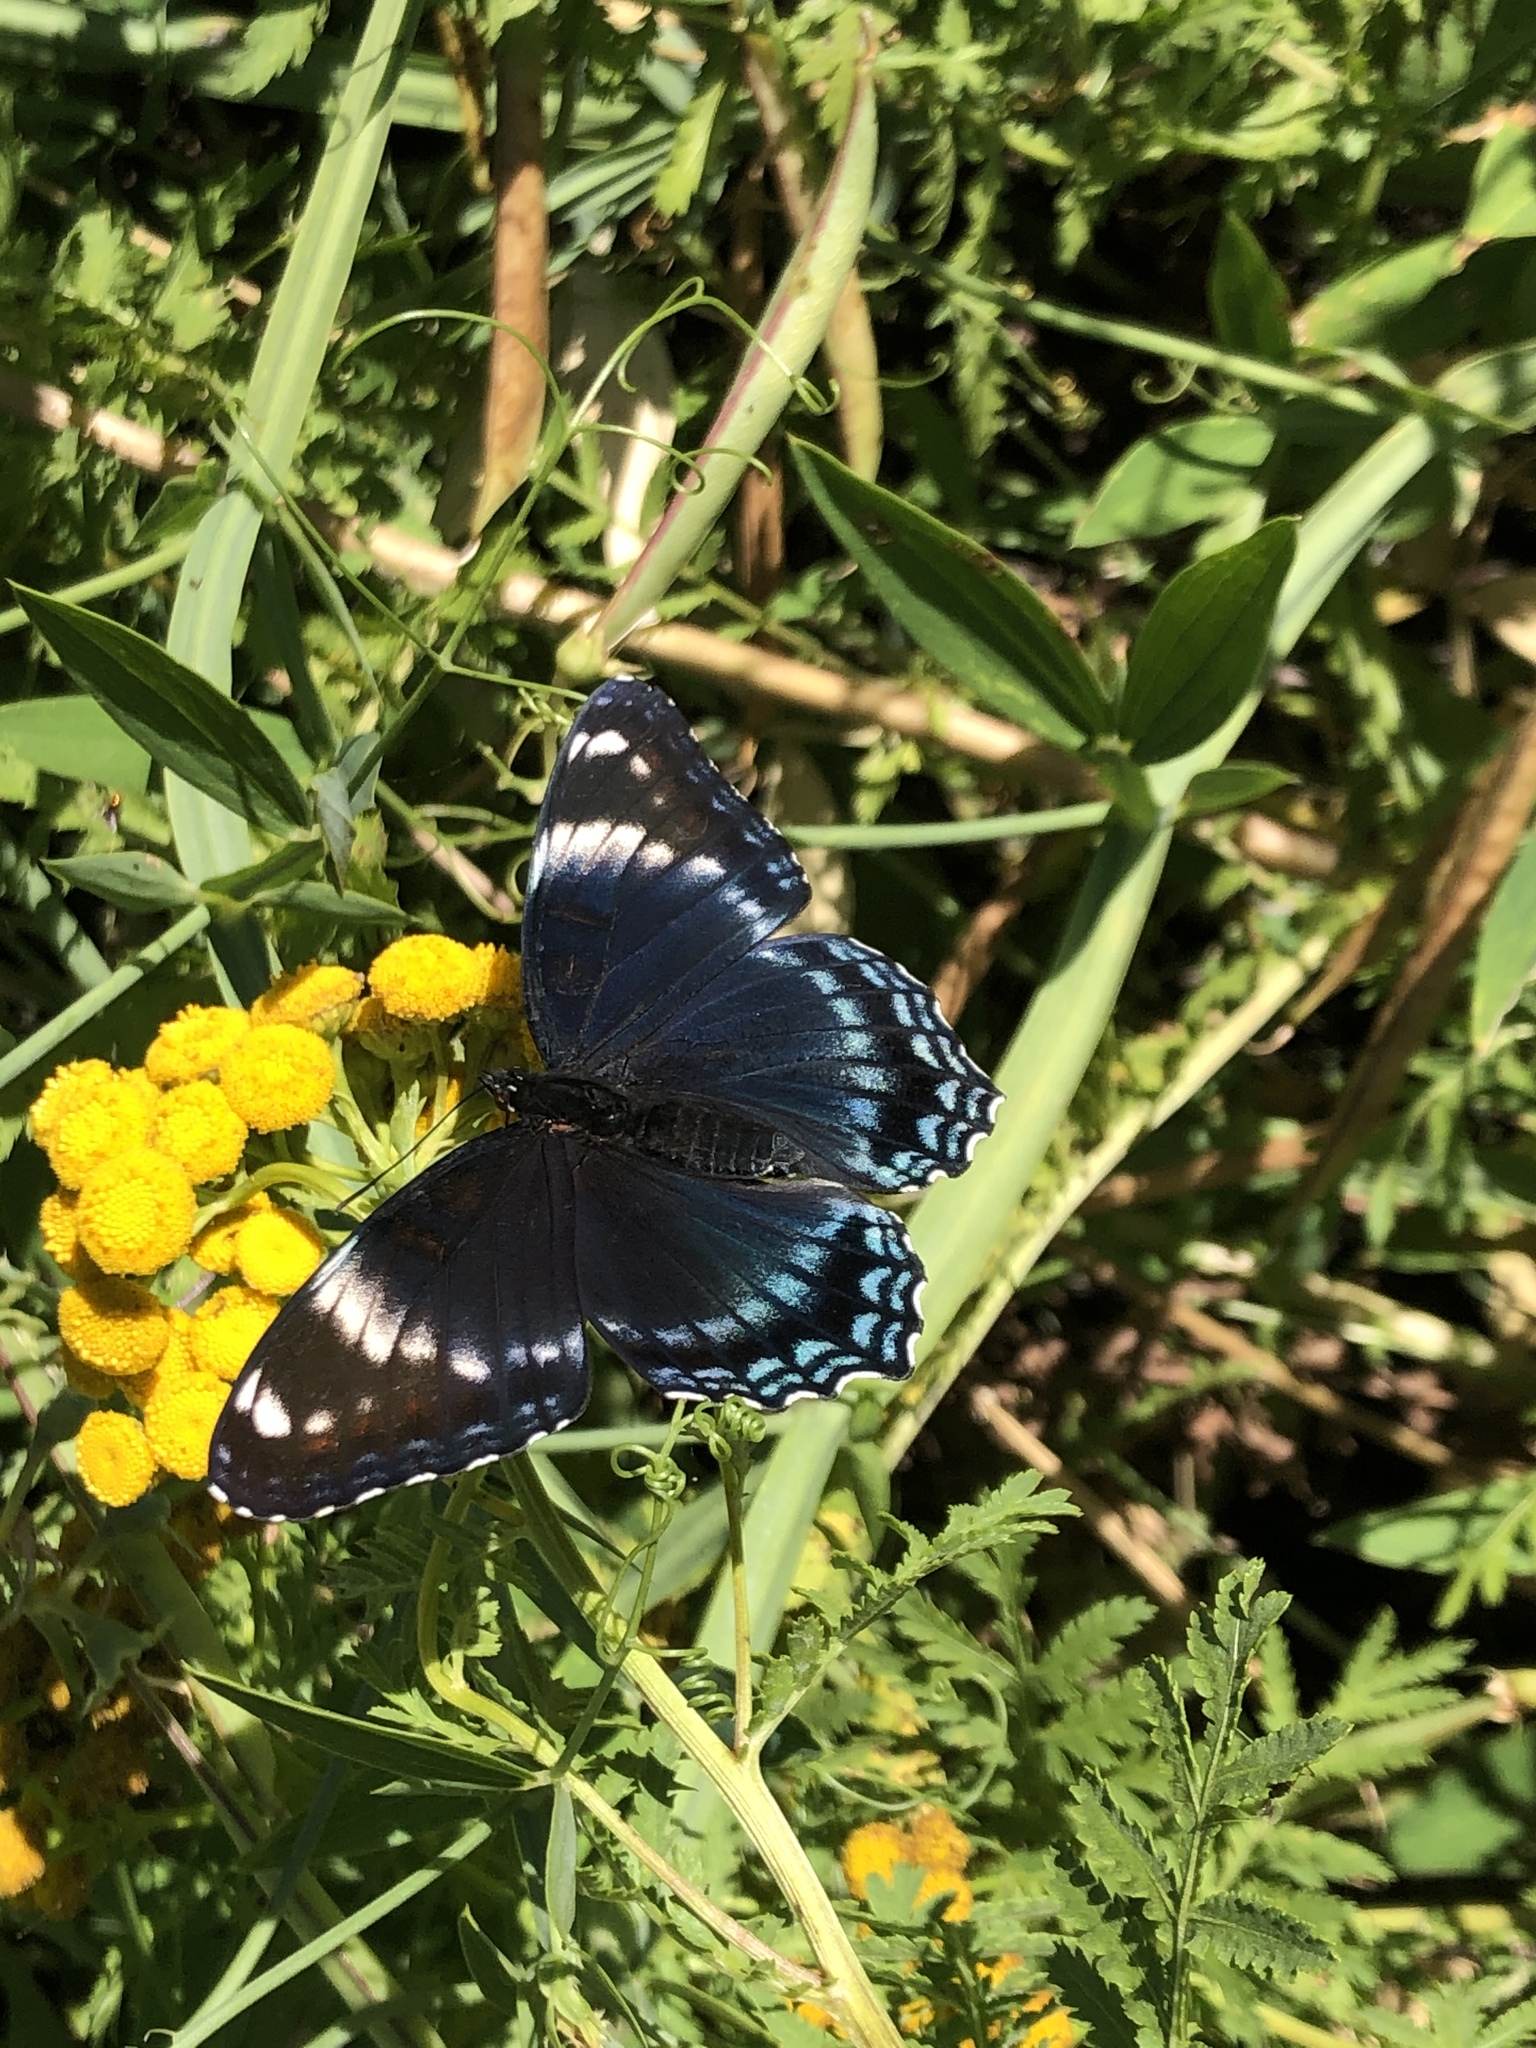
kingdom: Animalia
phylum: Arthropoda
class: Insecta
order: Lepidoptera
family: Nymphalidae
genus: Limenitis
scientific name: Limenitis arthemis
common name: Red-spotted admiral
